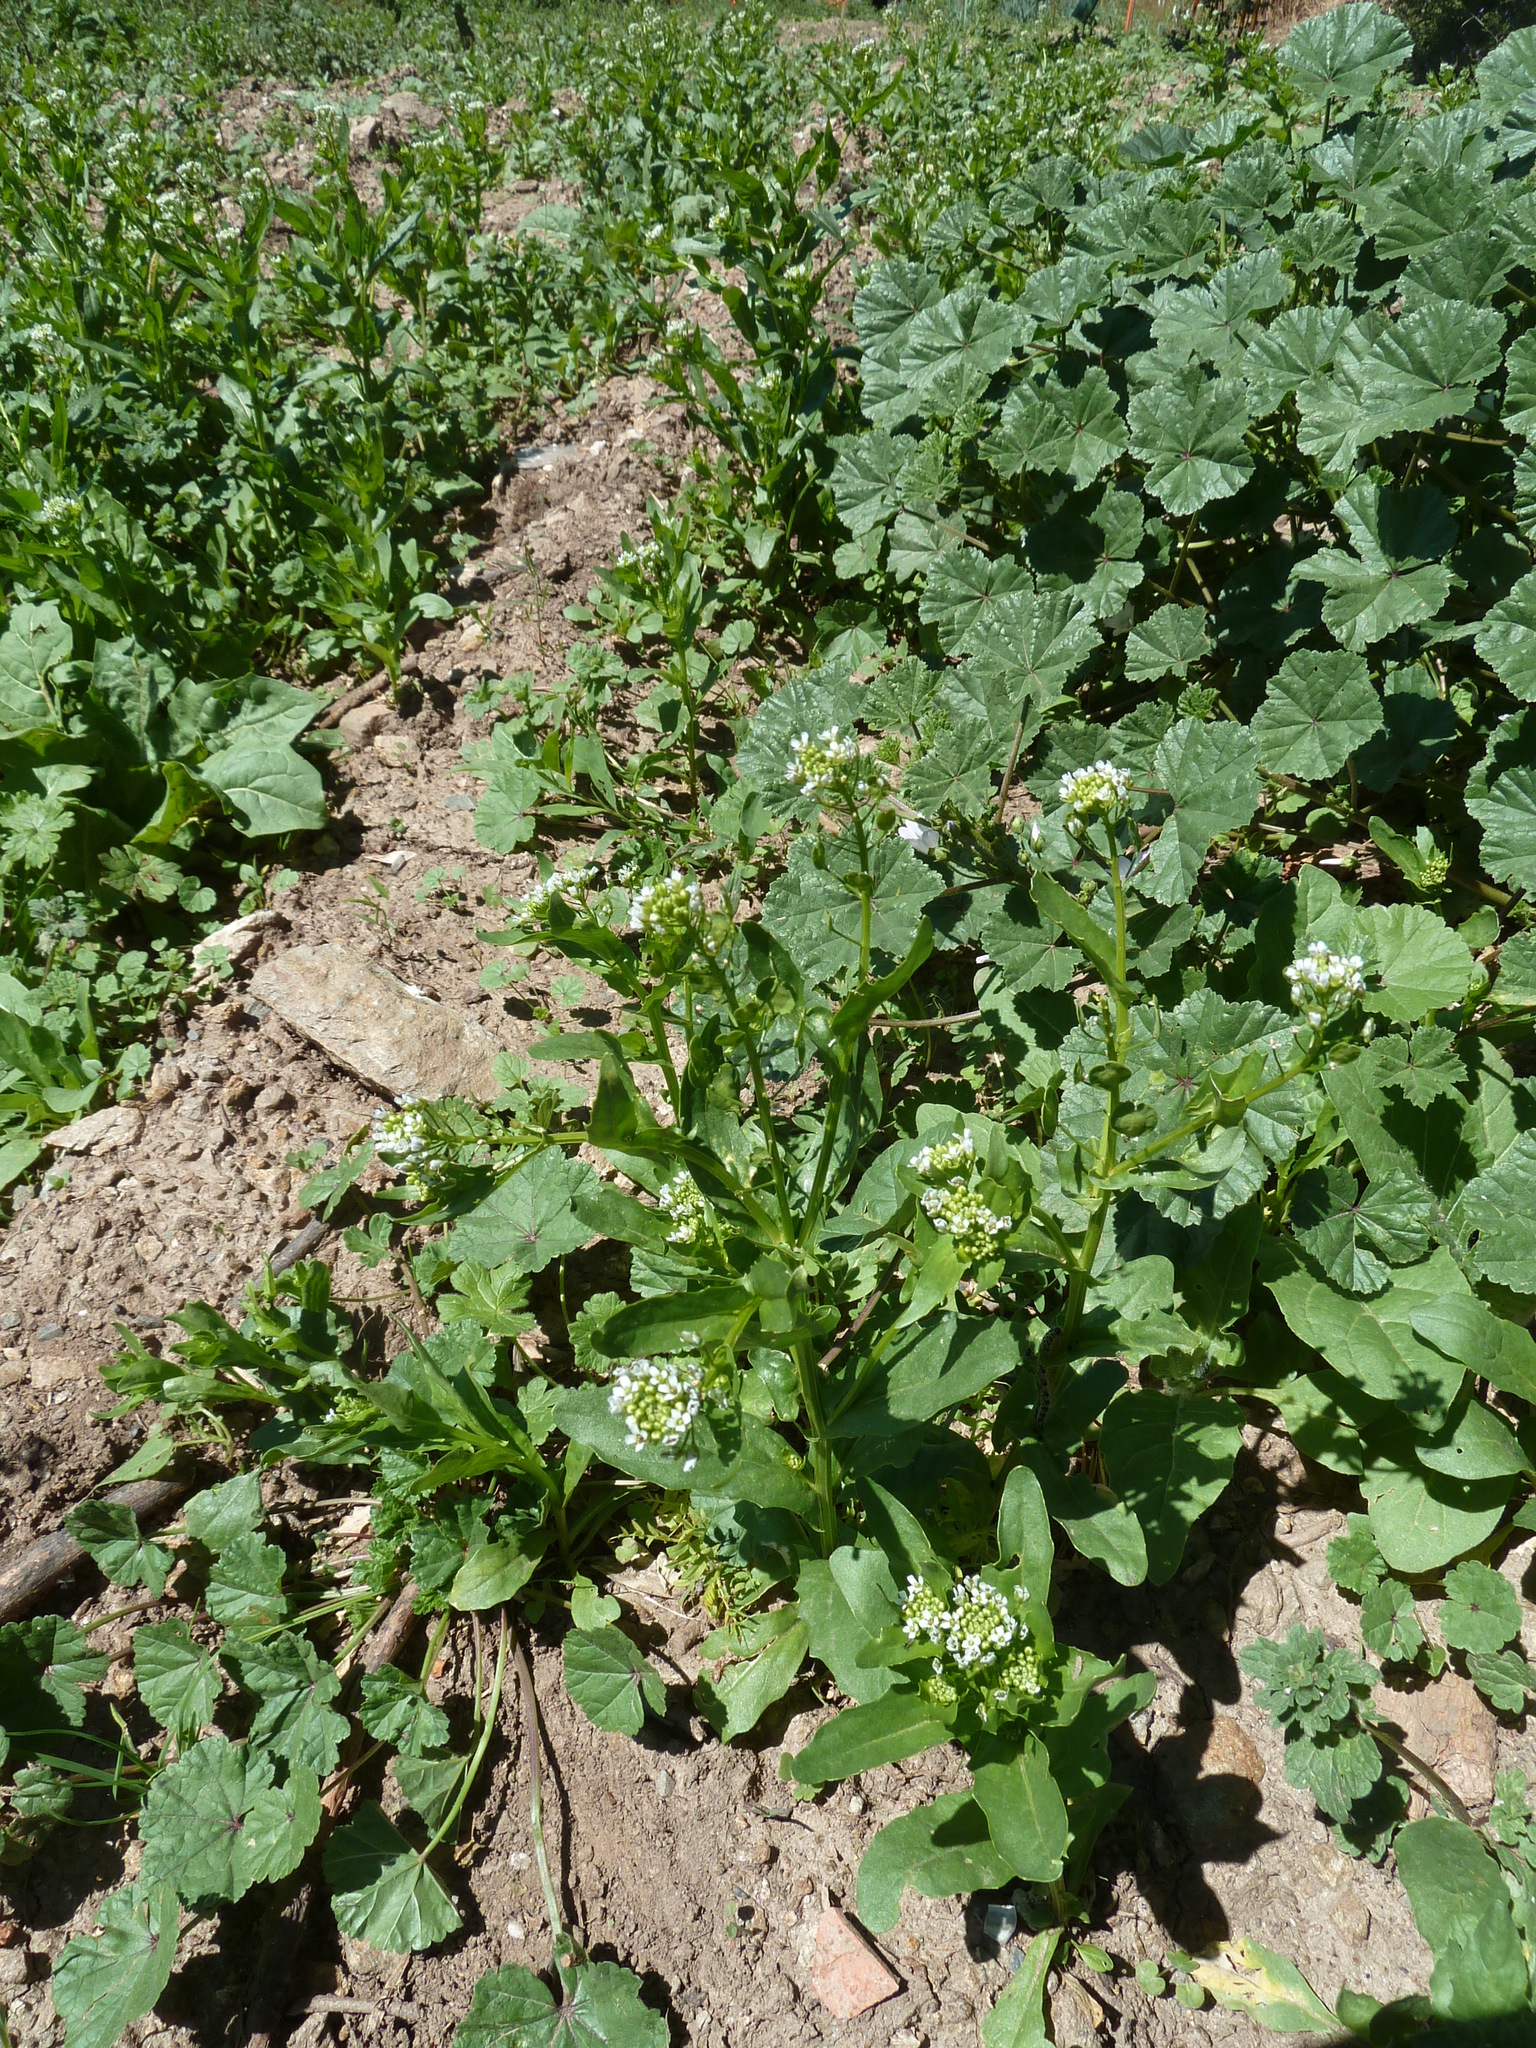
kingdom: Plantae
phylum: Tracheophyta
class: Magnoliopsida
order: Brassicales
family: Brassicaceae
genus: Thlaspi
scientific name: Thlaspi arvense
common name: Field pennycress
